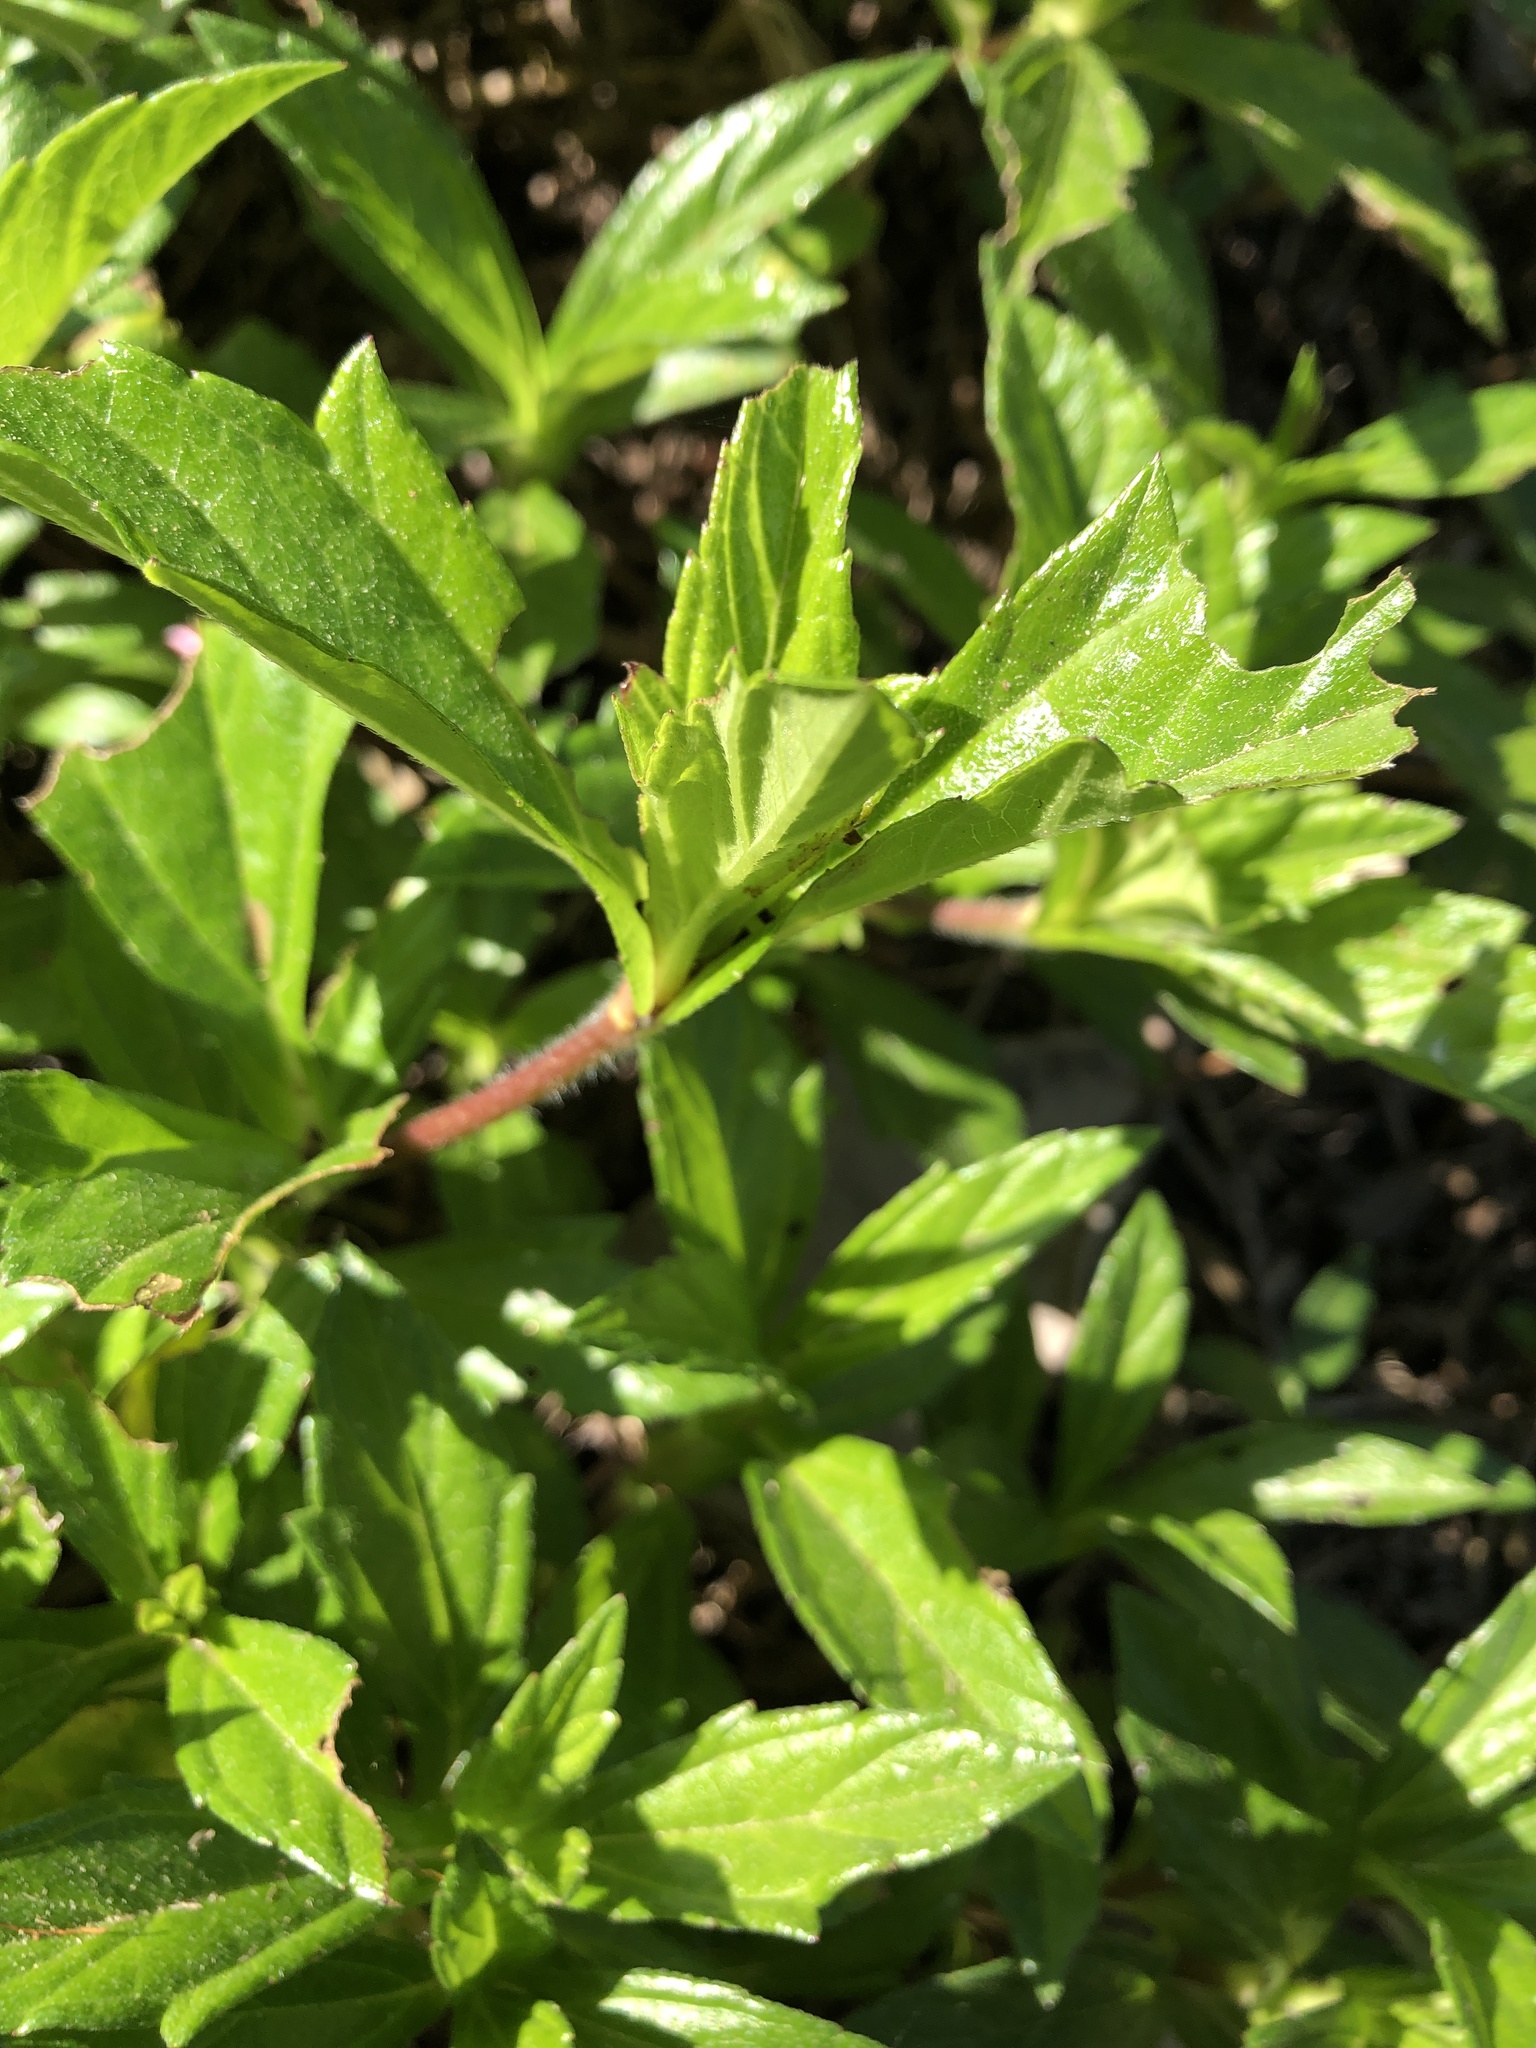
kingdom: Plantae
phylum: Tracheophyta
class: Magnoliopsida
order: Asterales
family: Asteraceae
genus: Sphagneticola
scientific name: Sphagneticola trilobata
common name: Bay biscayne creeping-oxeye
